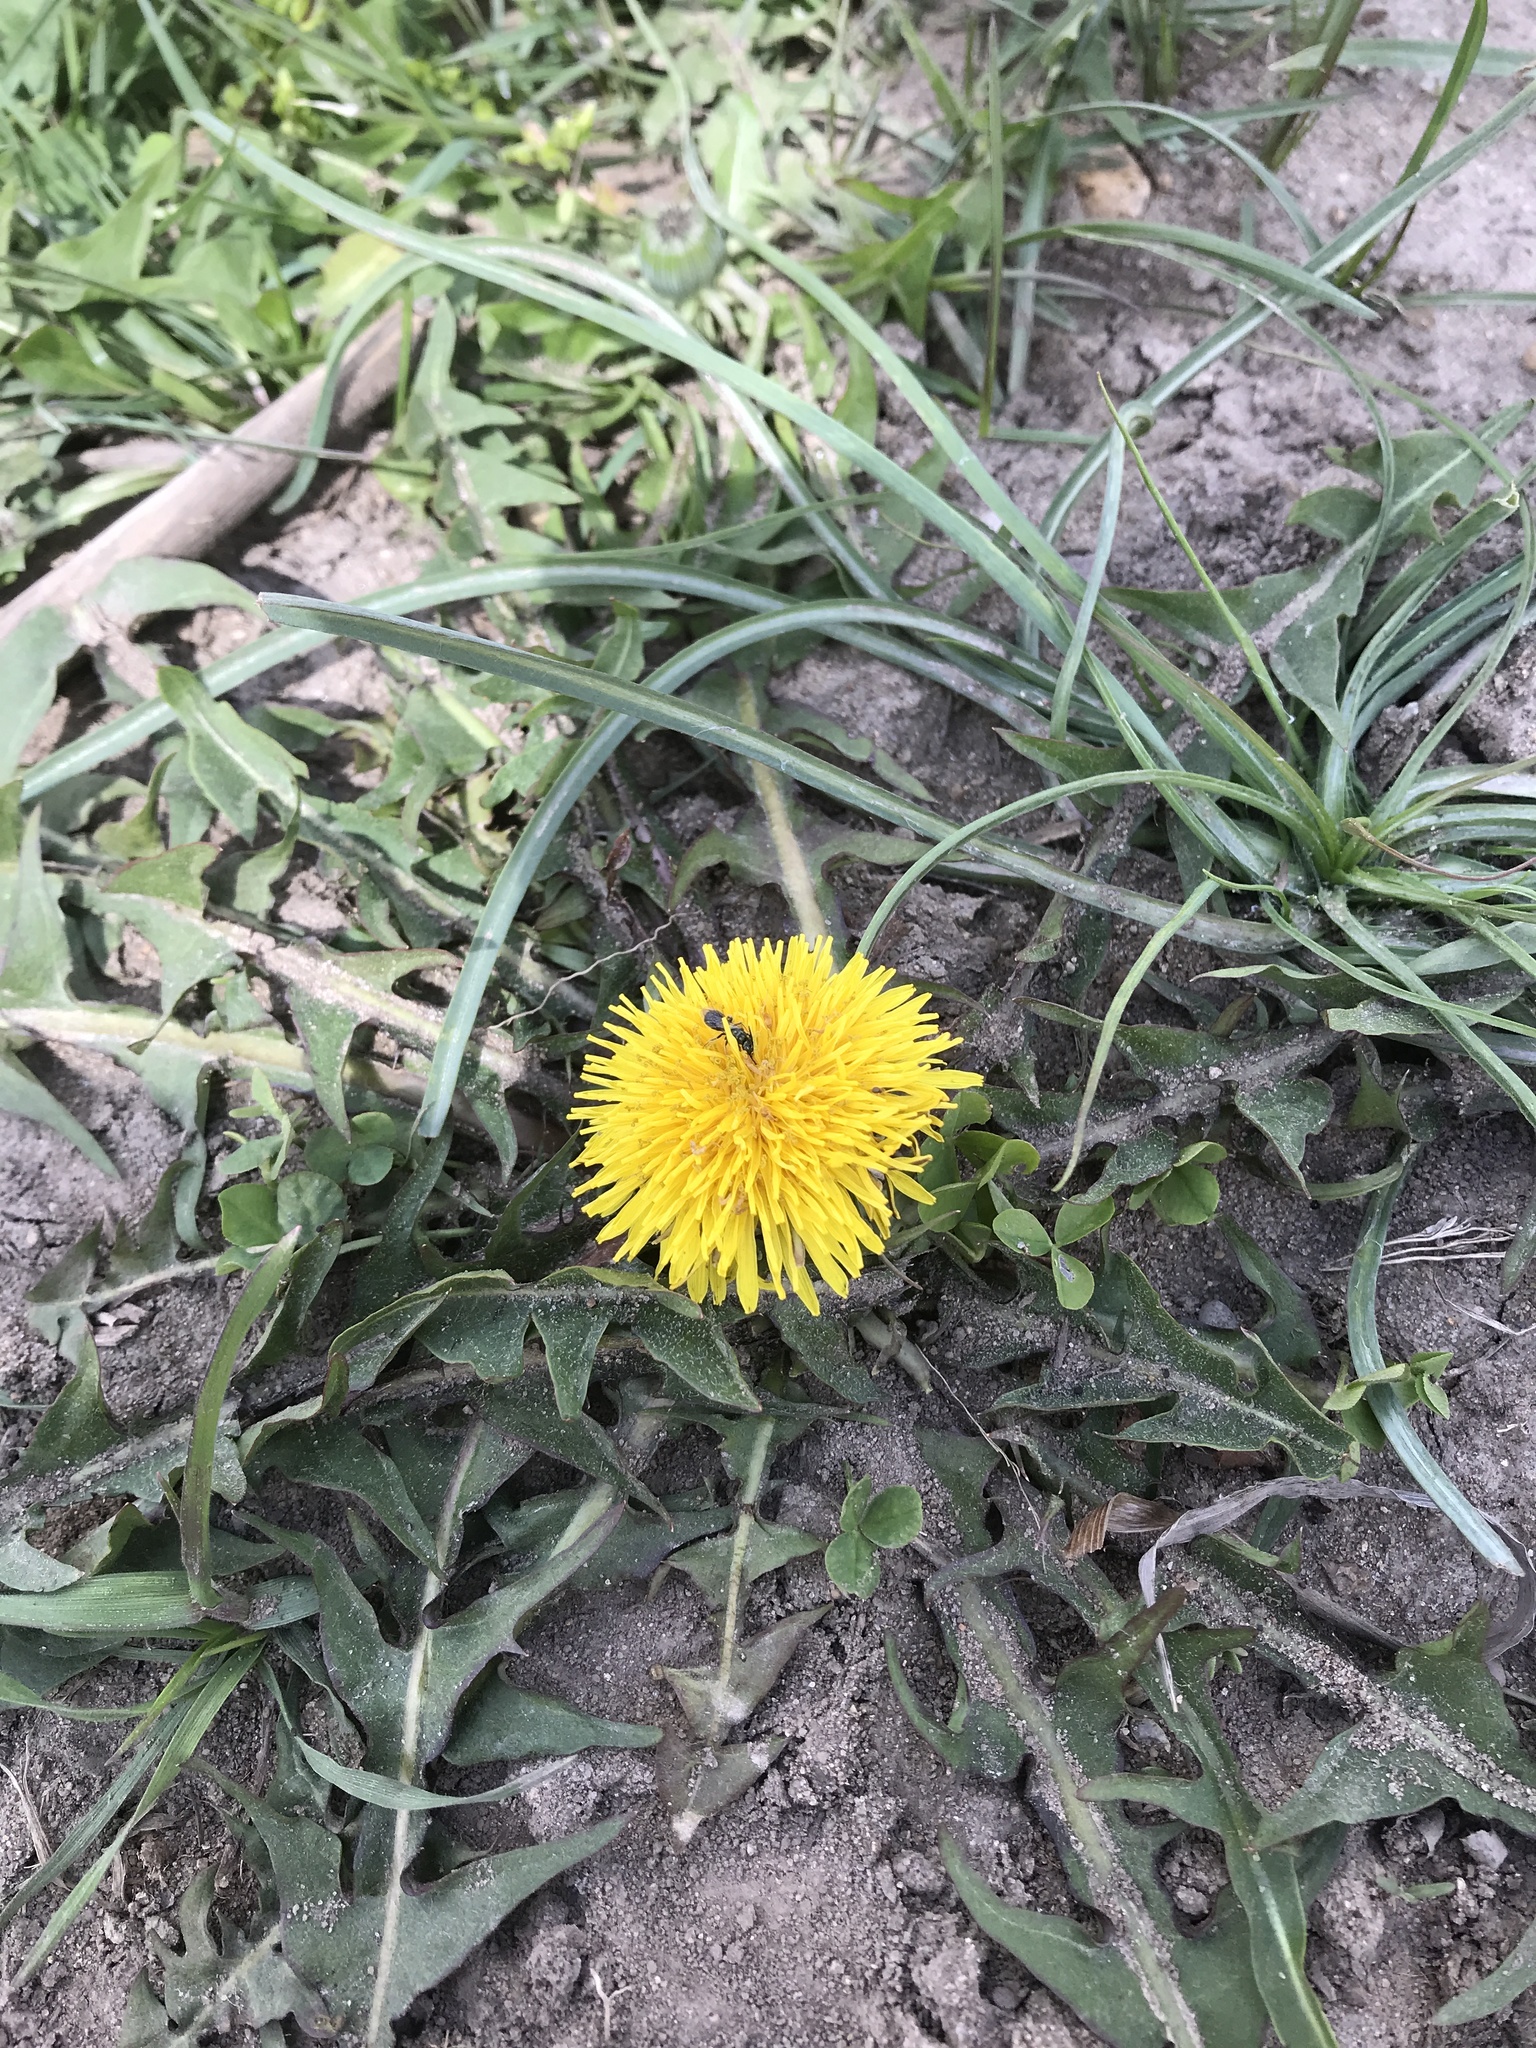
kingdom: Plantae
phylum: Tracheophyta
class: Magnoliopsida
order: Asterales
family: Asteraceae
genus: Taraxacum
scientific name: Taraxacum officinale
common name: Common dandelion
